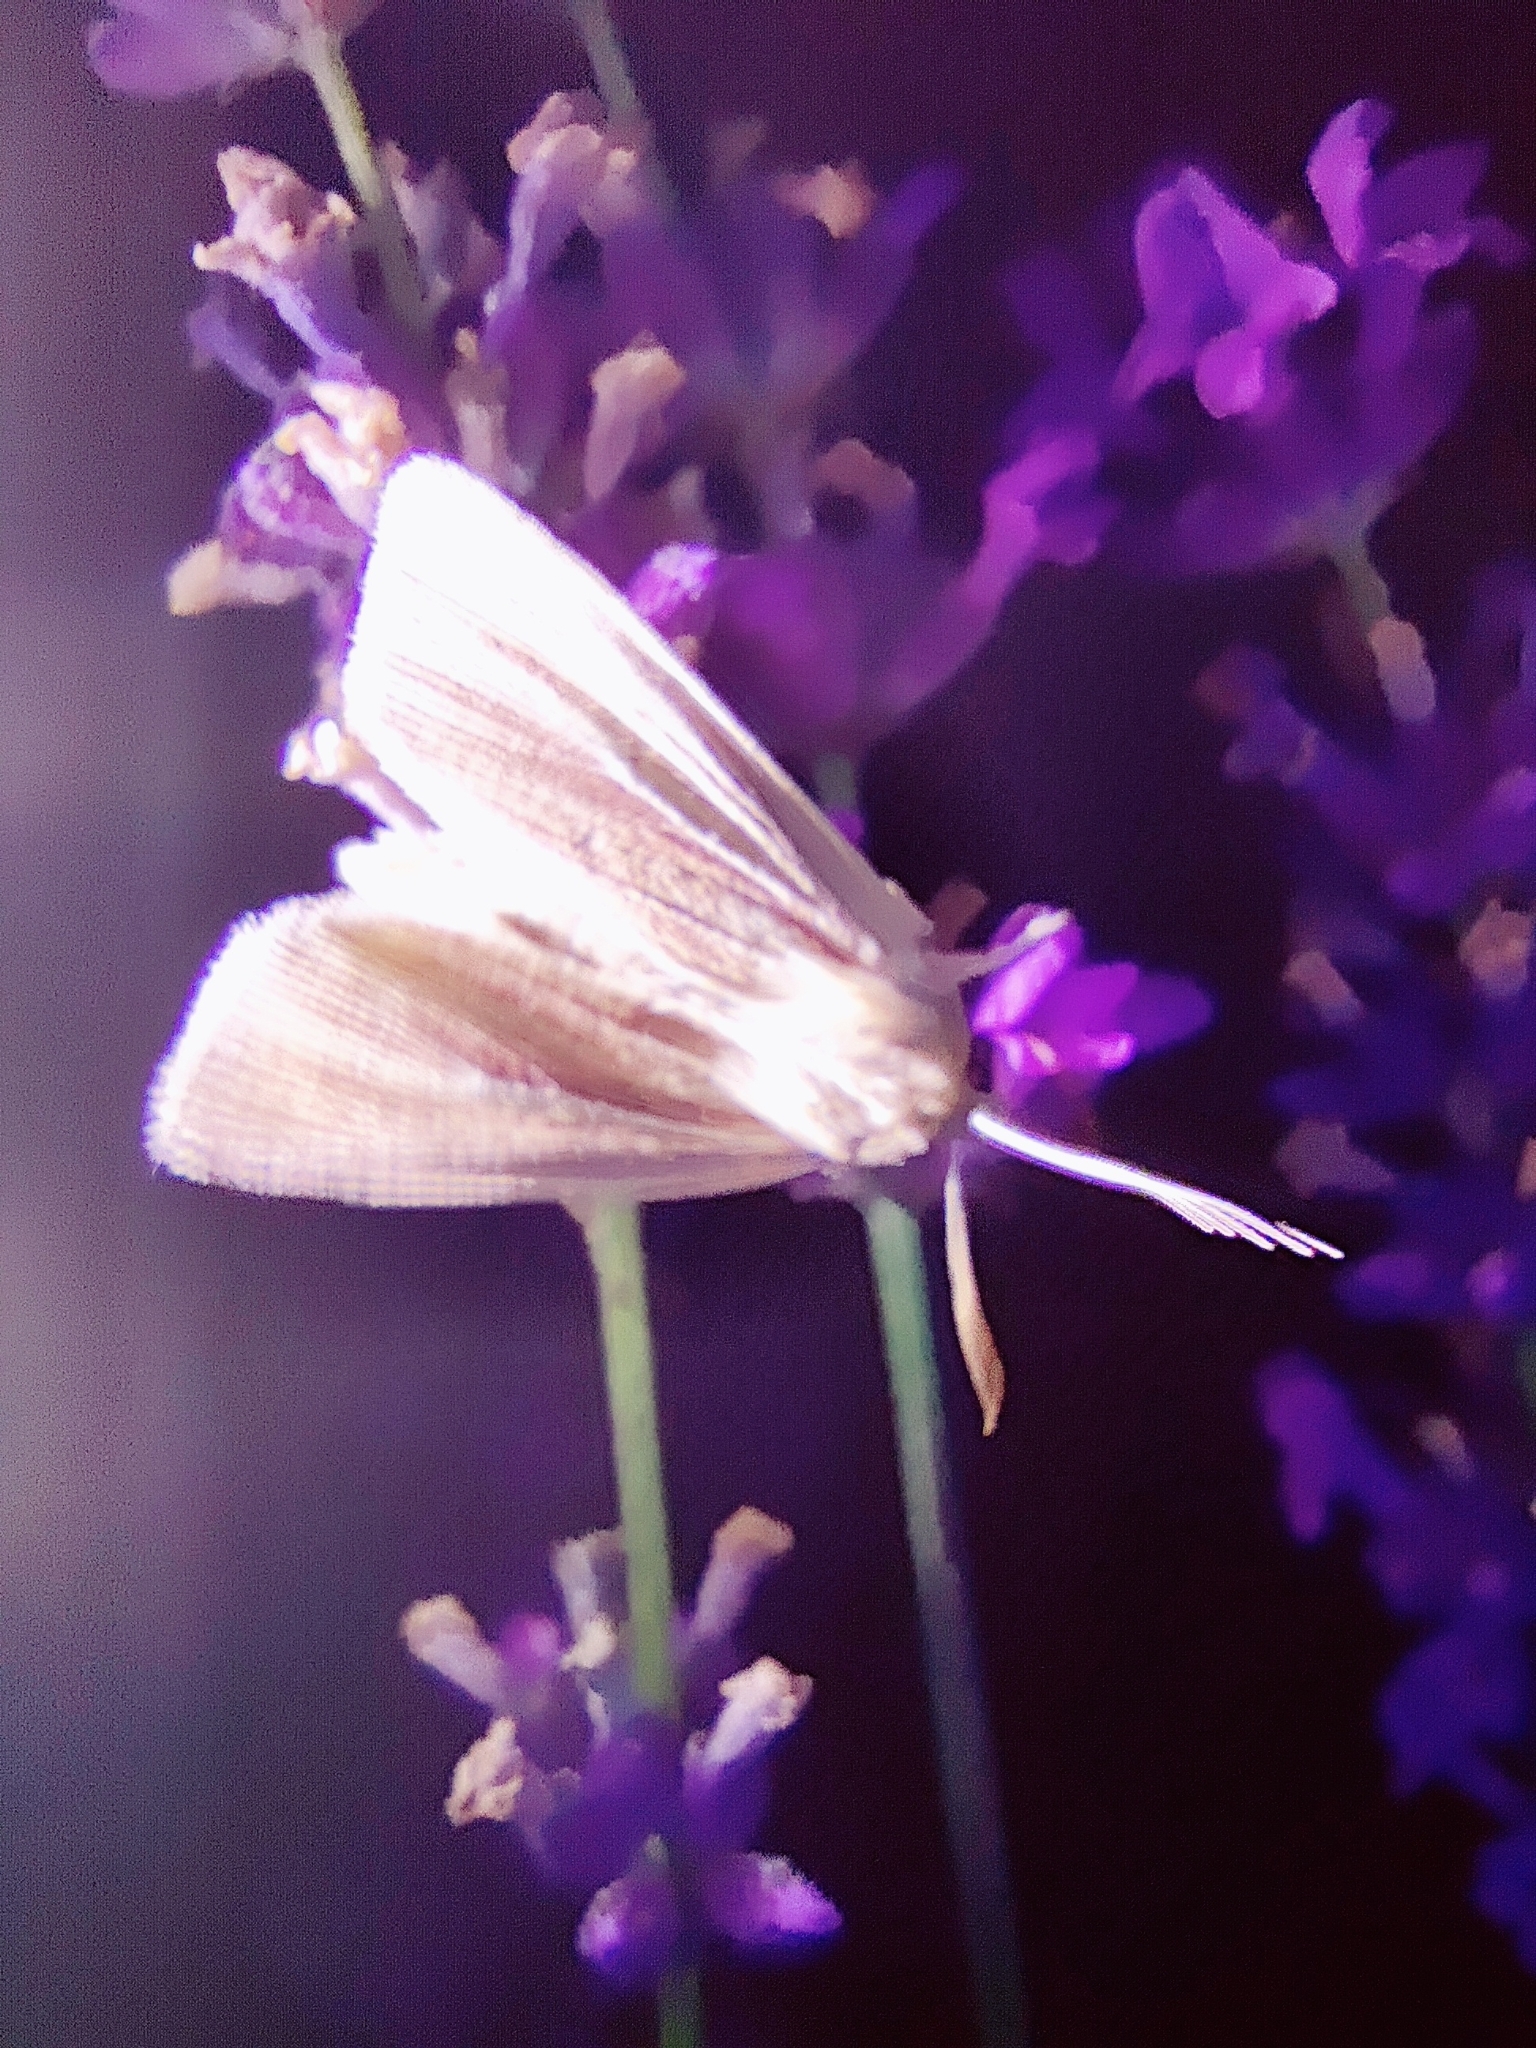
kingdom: Animalia
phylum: Arthropoda
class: Insecta
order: Lepidoptera
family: Noctuidae
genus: Mythimna
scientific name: Mythimna impura
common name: Smoky wainscot
